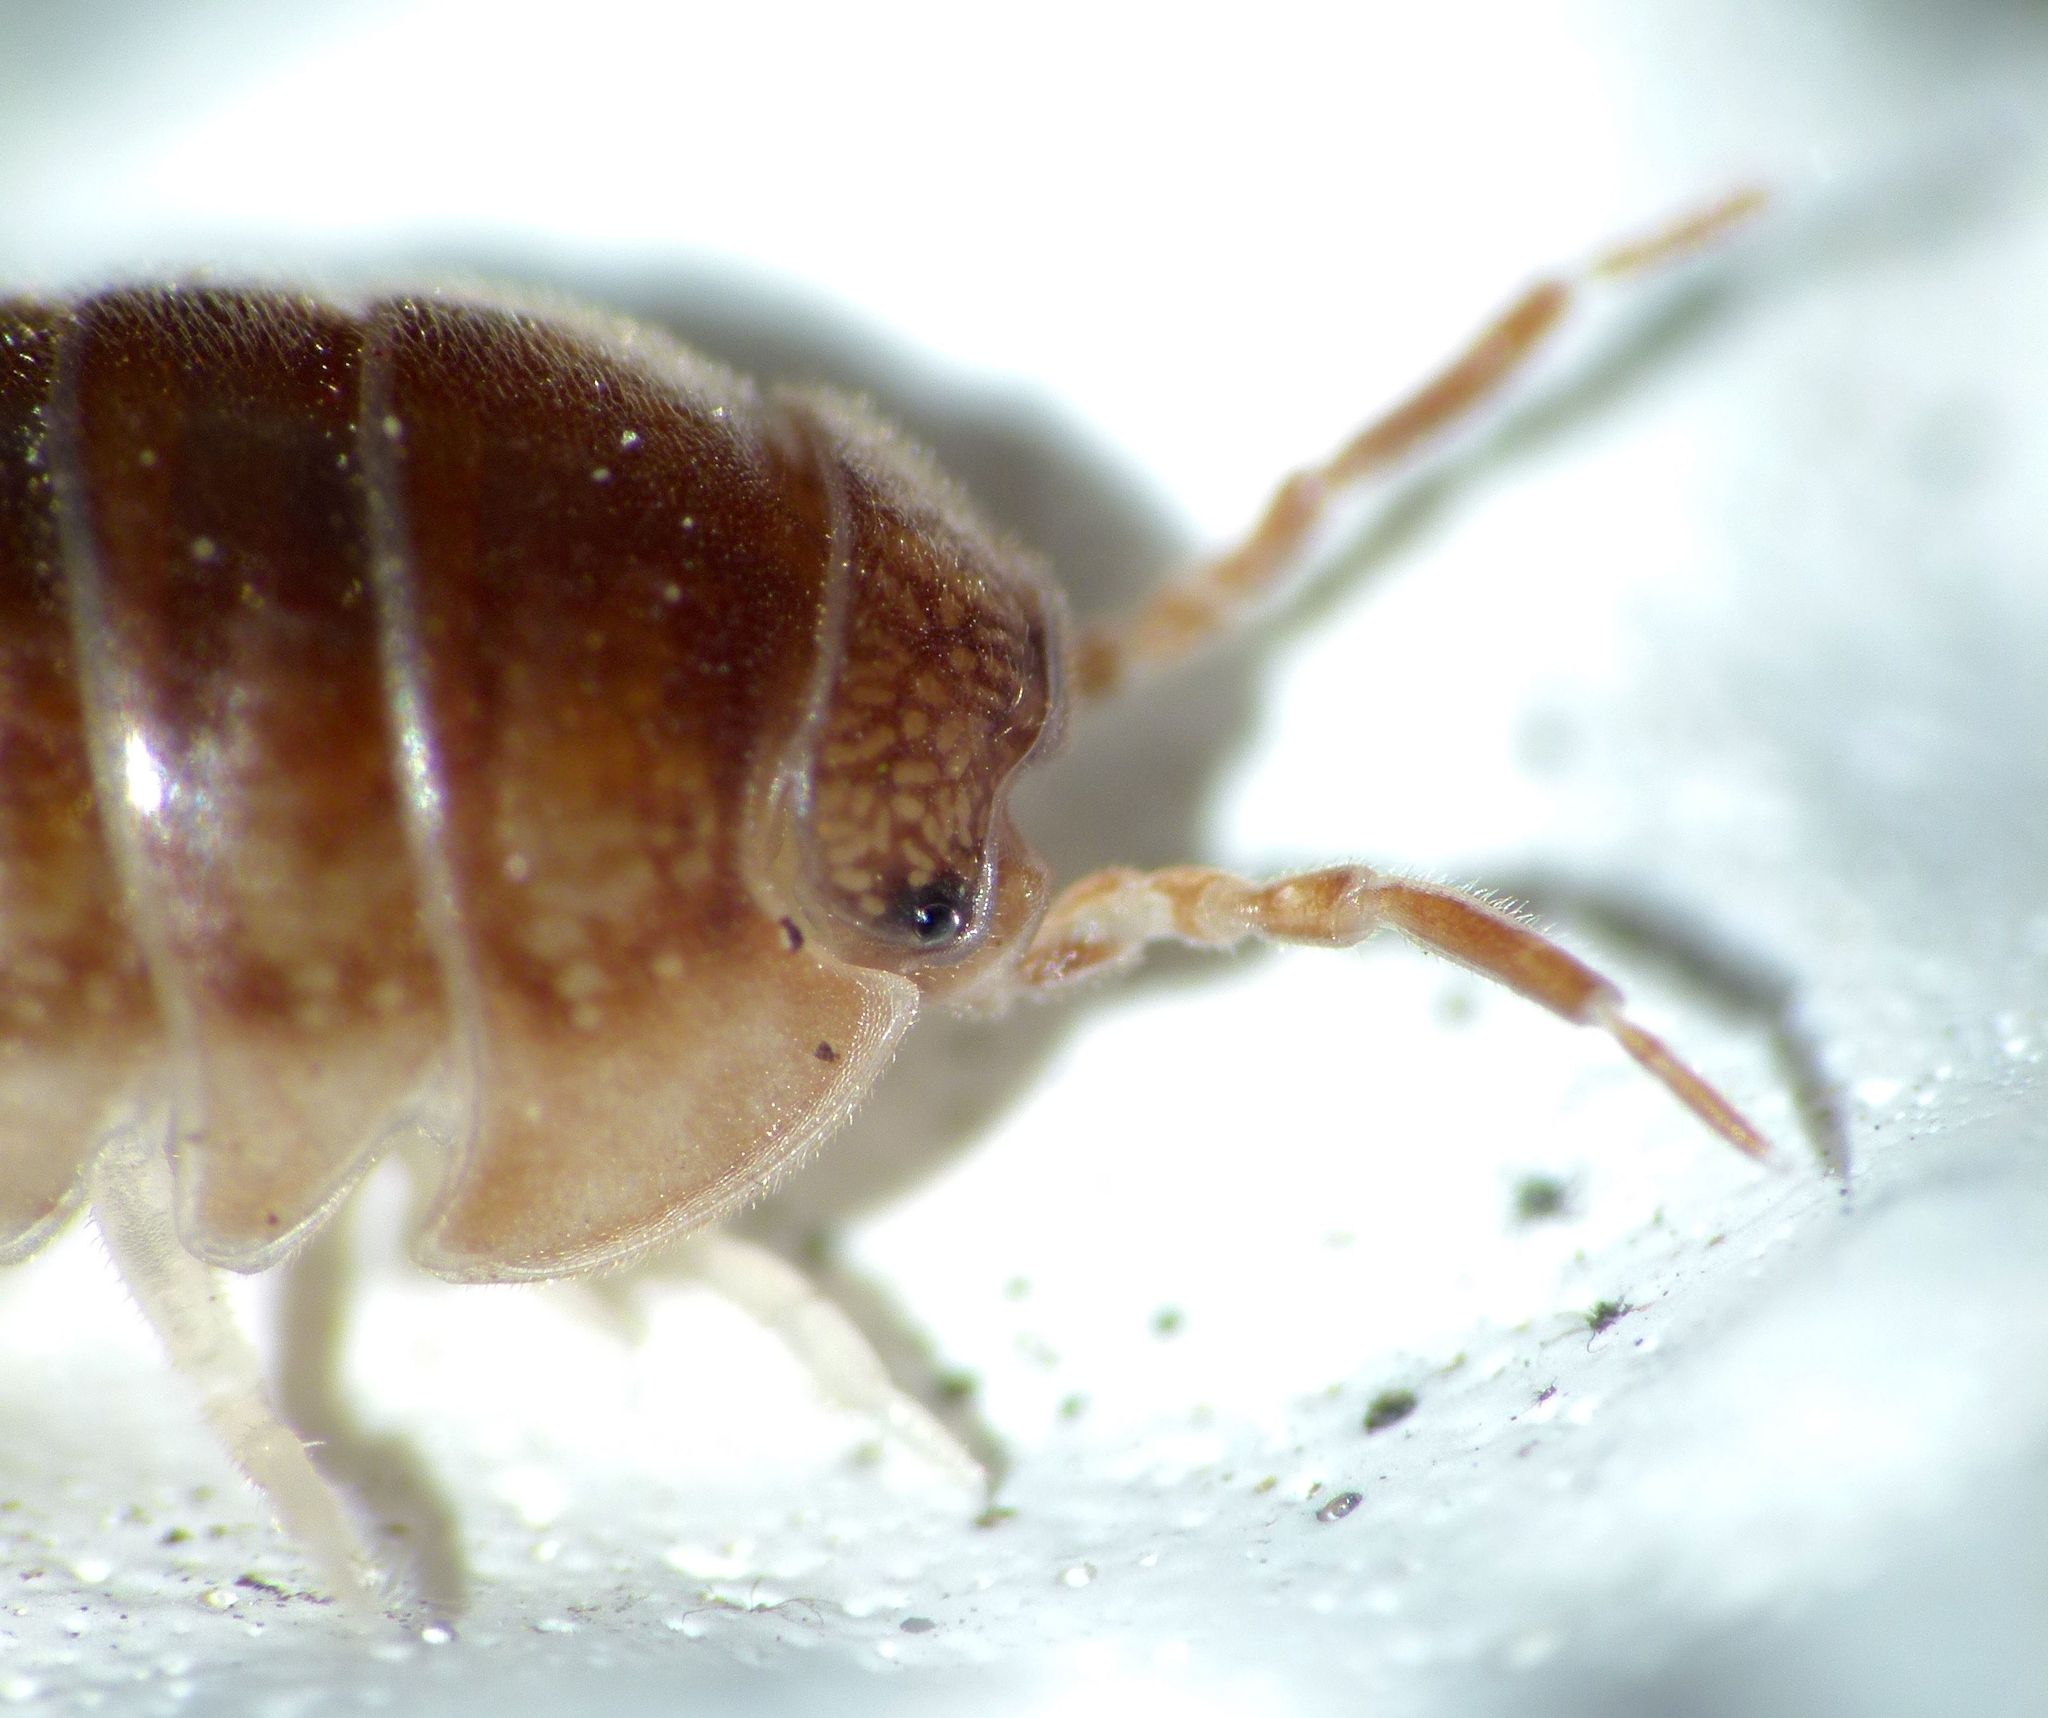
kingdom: Animalia
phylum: Arthropoda
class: Malacostraca
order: Isopoda
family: Armadillidiidae
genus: Eluma
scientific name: Eluma caelata
